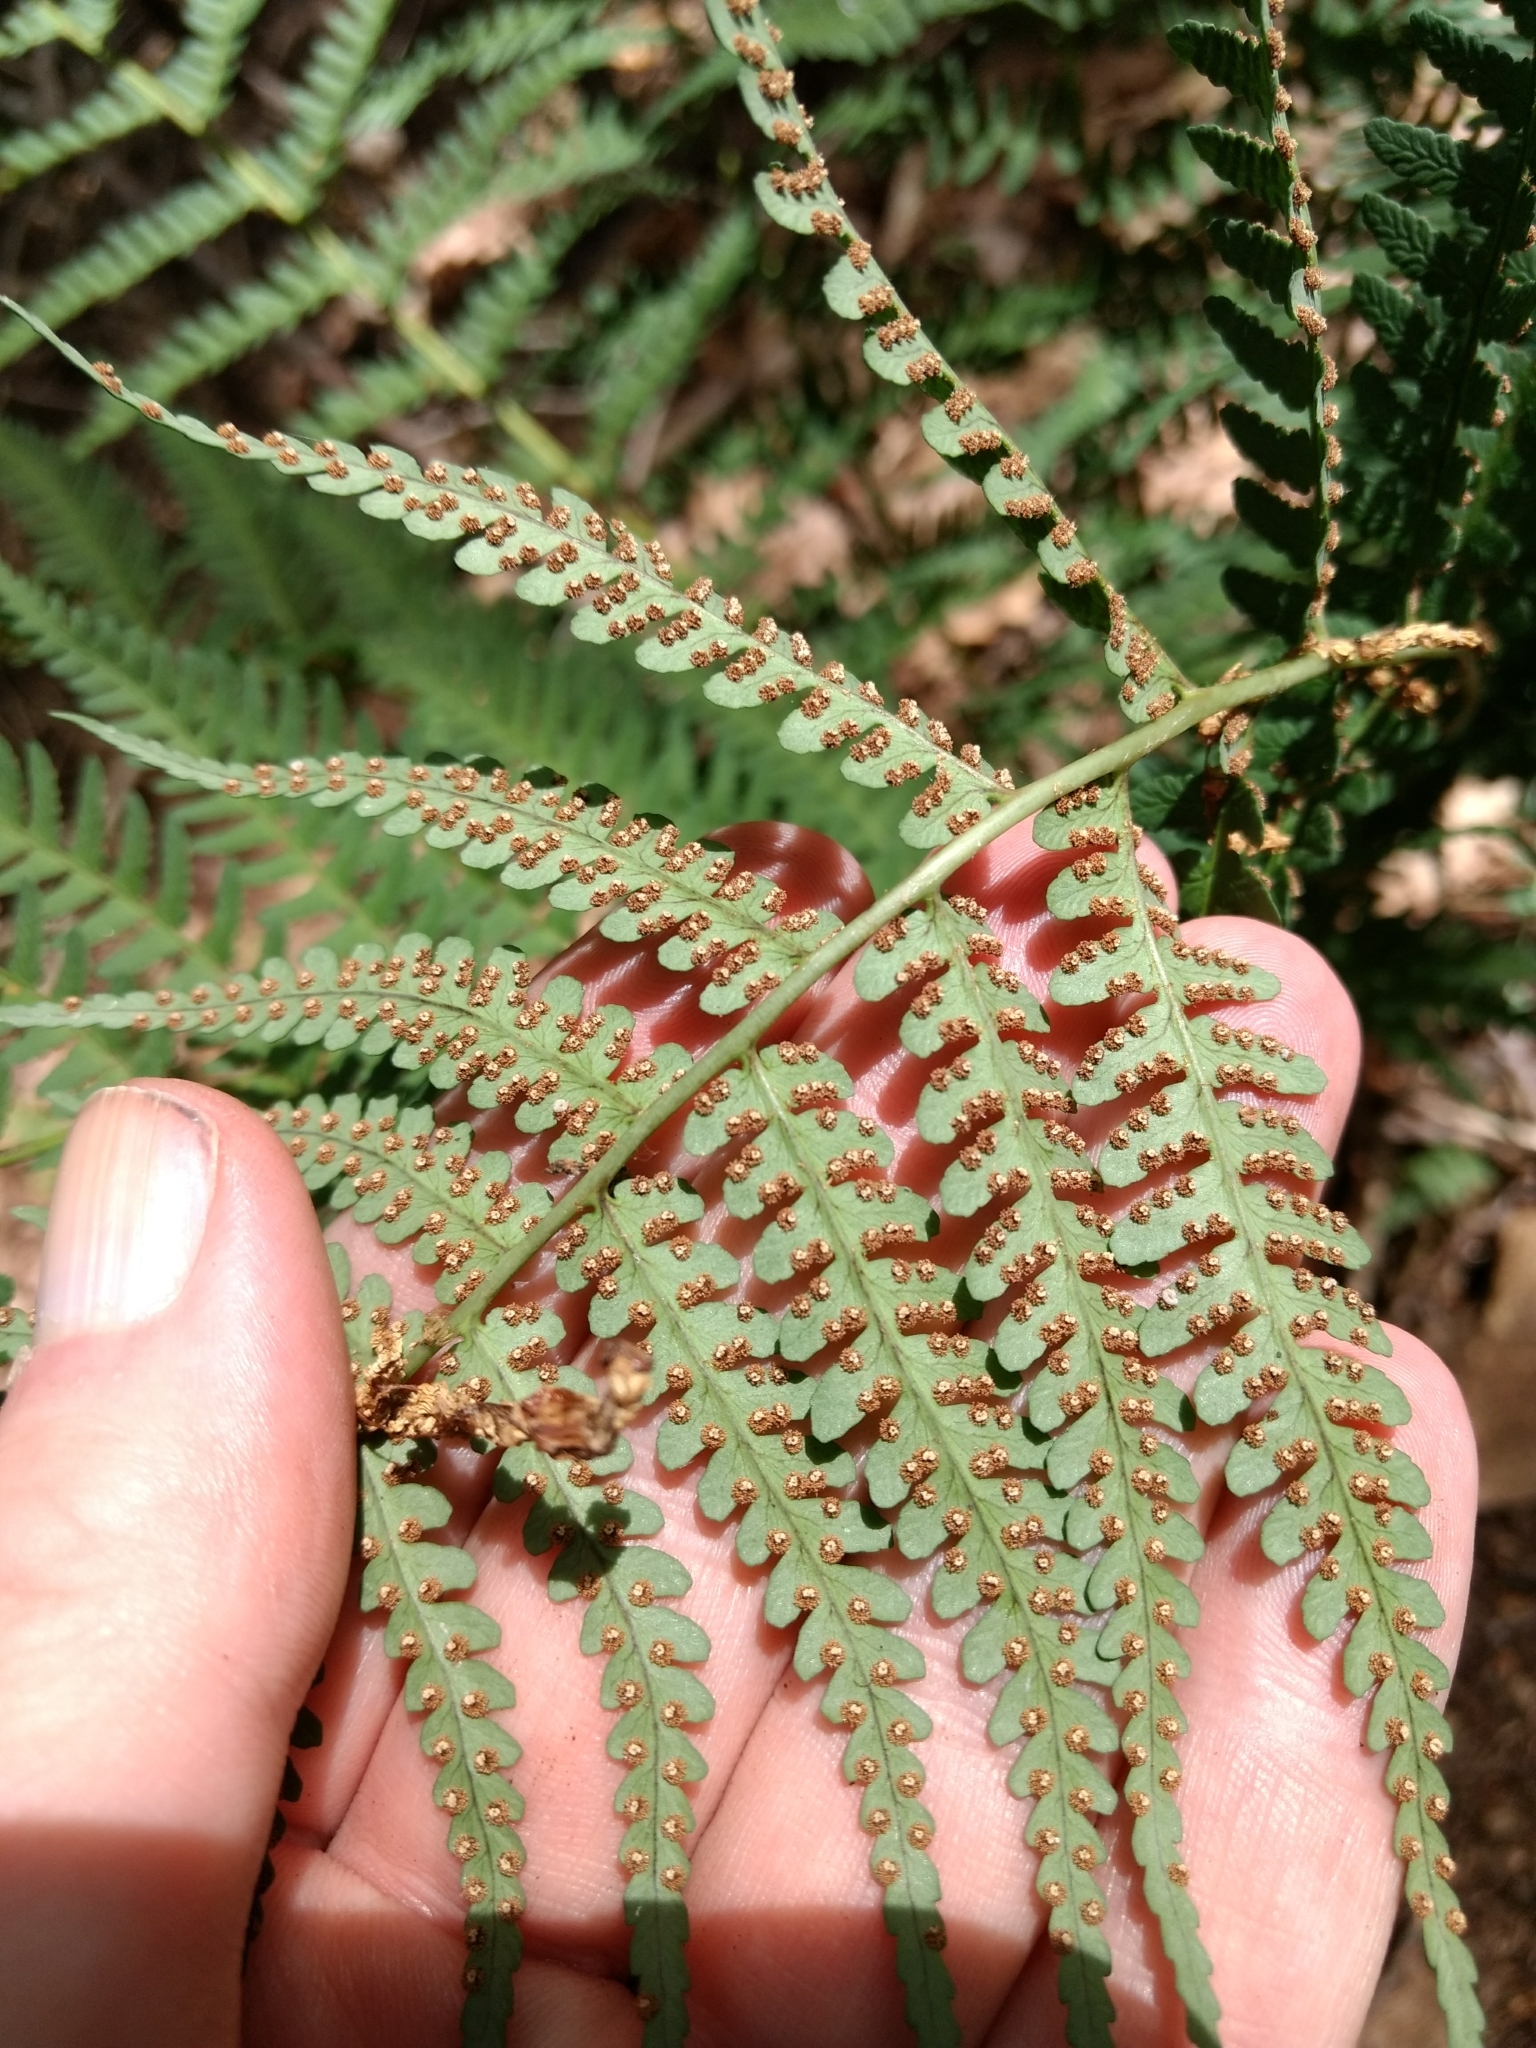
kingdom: Plantae
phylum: Tracheophyta
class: Polypodiopsida
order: Polypodiales
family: Dryopteridaceae
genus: Dryopteris
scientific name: Dryopteris marginalis
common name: Marginal wood fern
